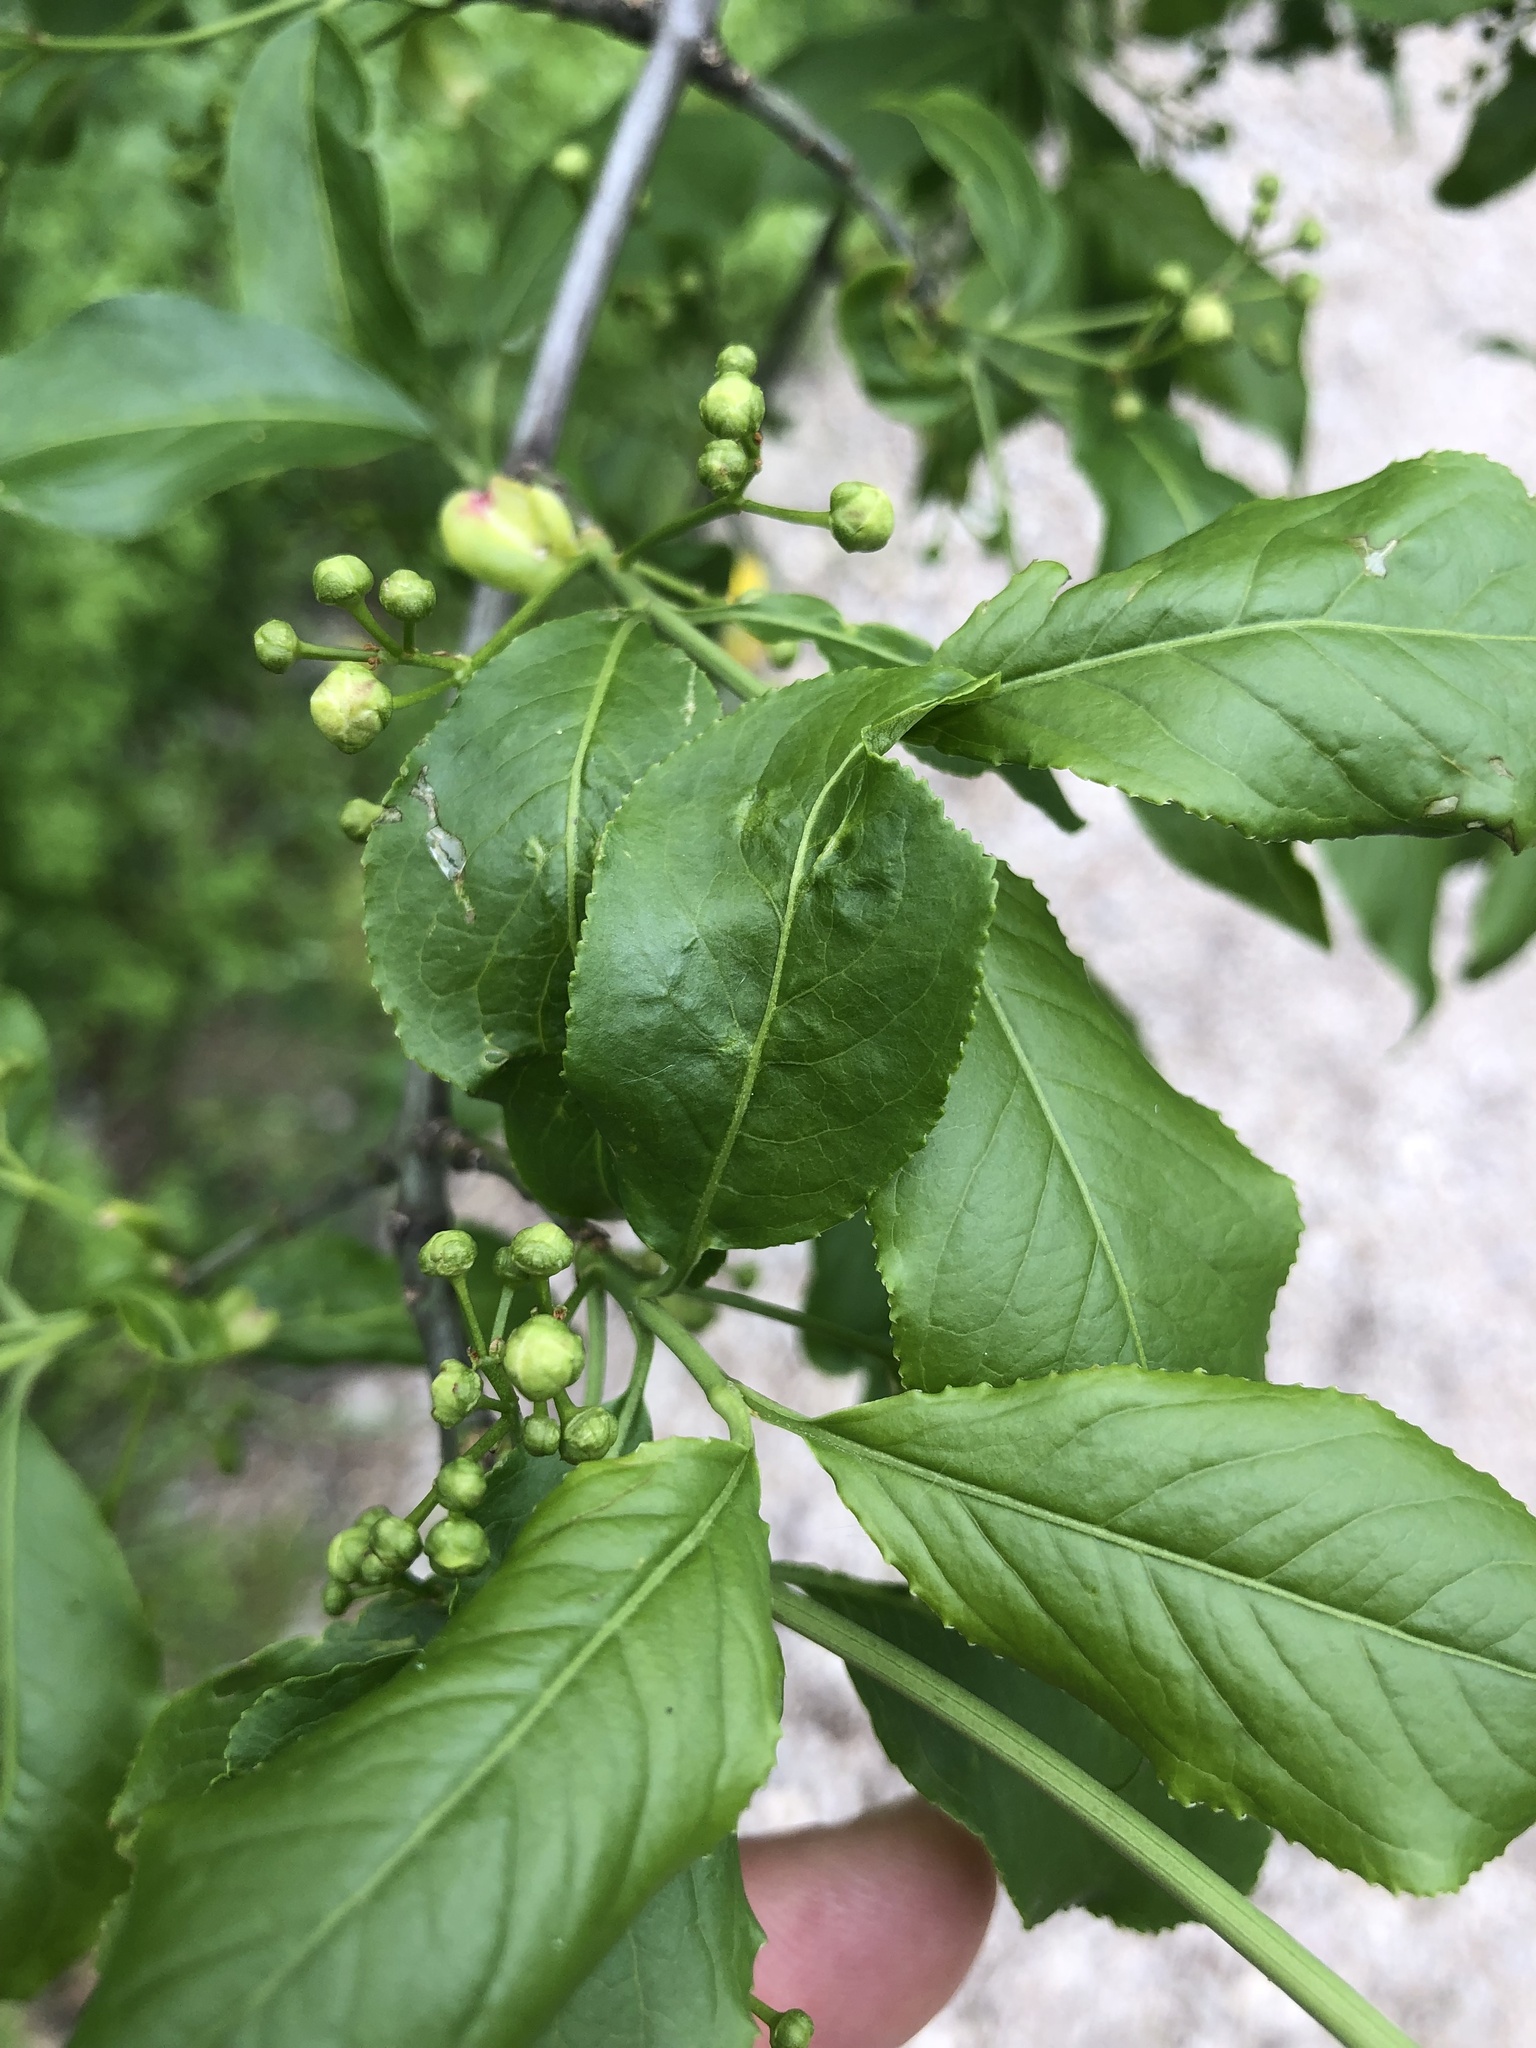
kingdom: Plantae
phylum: Tracheophyta
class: Magnoliopsida
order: Celastrales
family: Celastraceae
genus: Euonymus
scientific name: Euonymus europaeus
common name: Spindle
